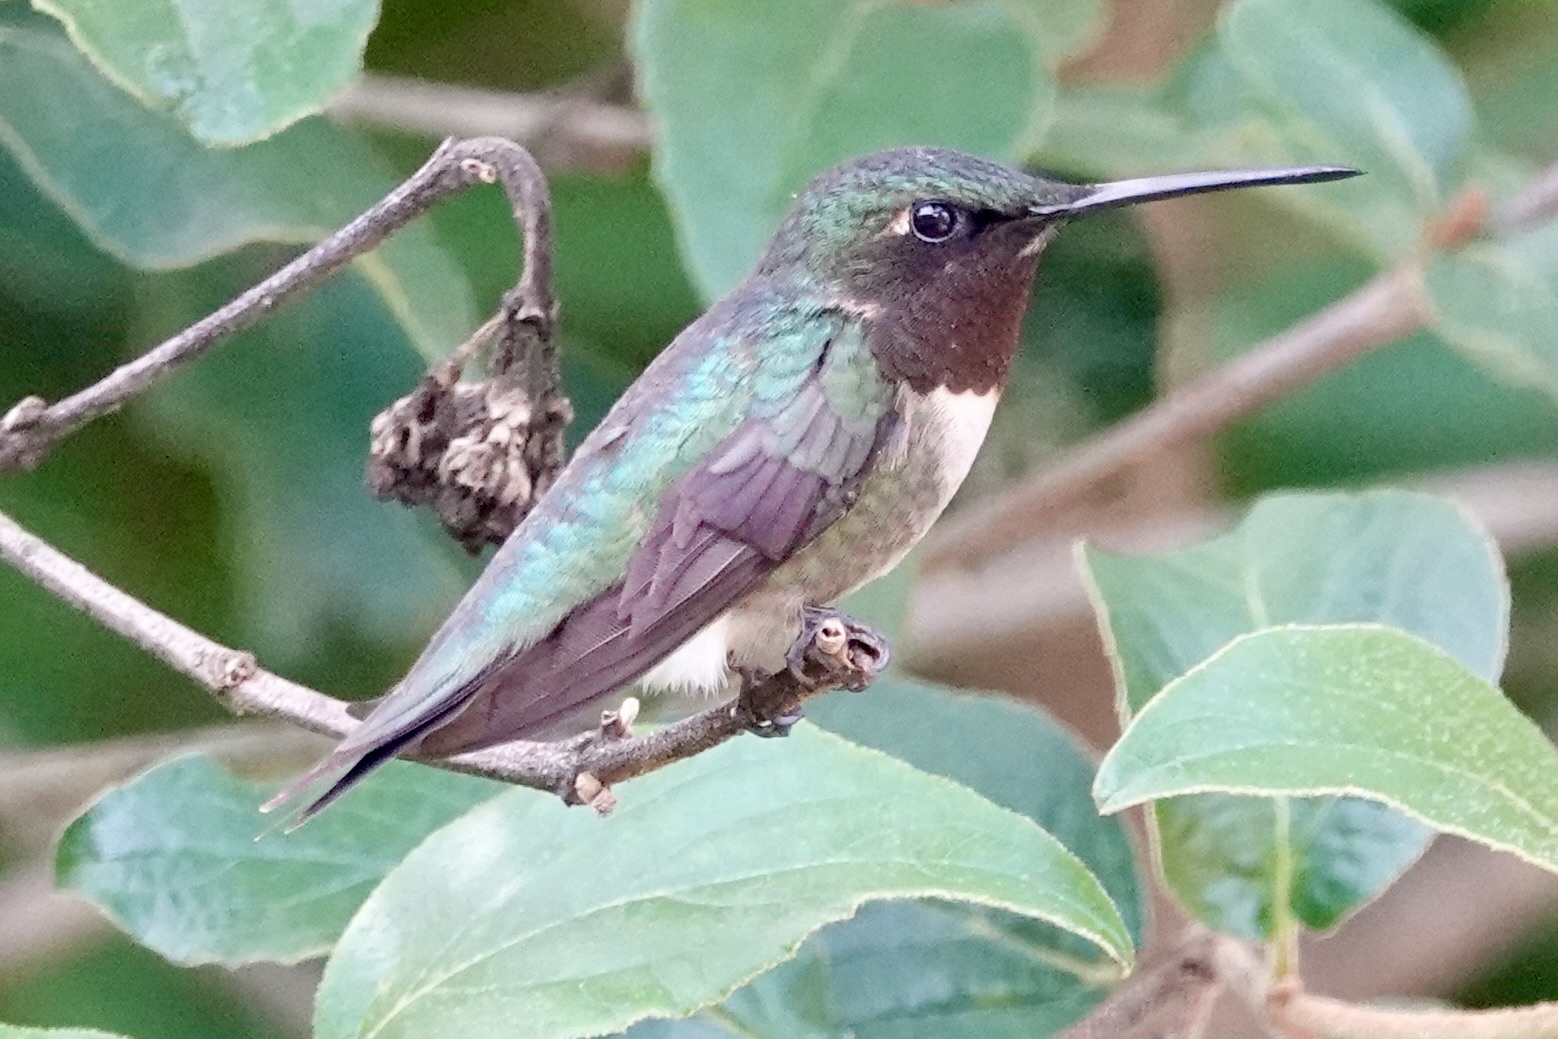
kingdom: Animalia
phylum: Chordata
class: Aves
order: Apodiformes
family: Trochilidae
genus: Archilochus
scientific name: Archilochus colubris
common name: Ruby-throated hummingbird
